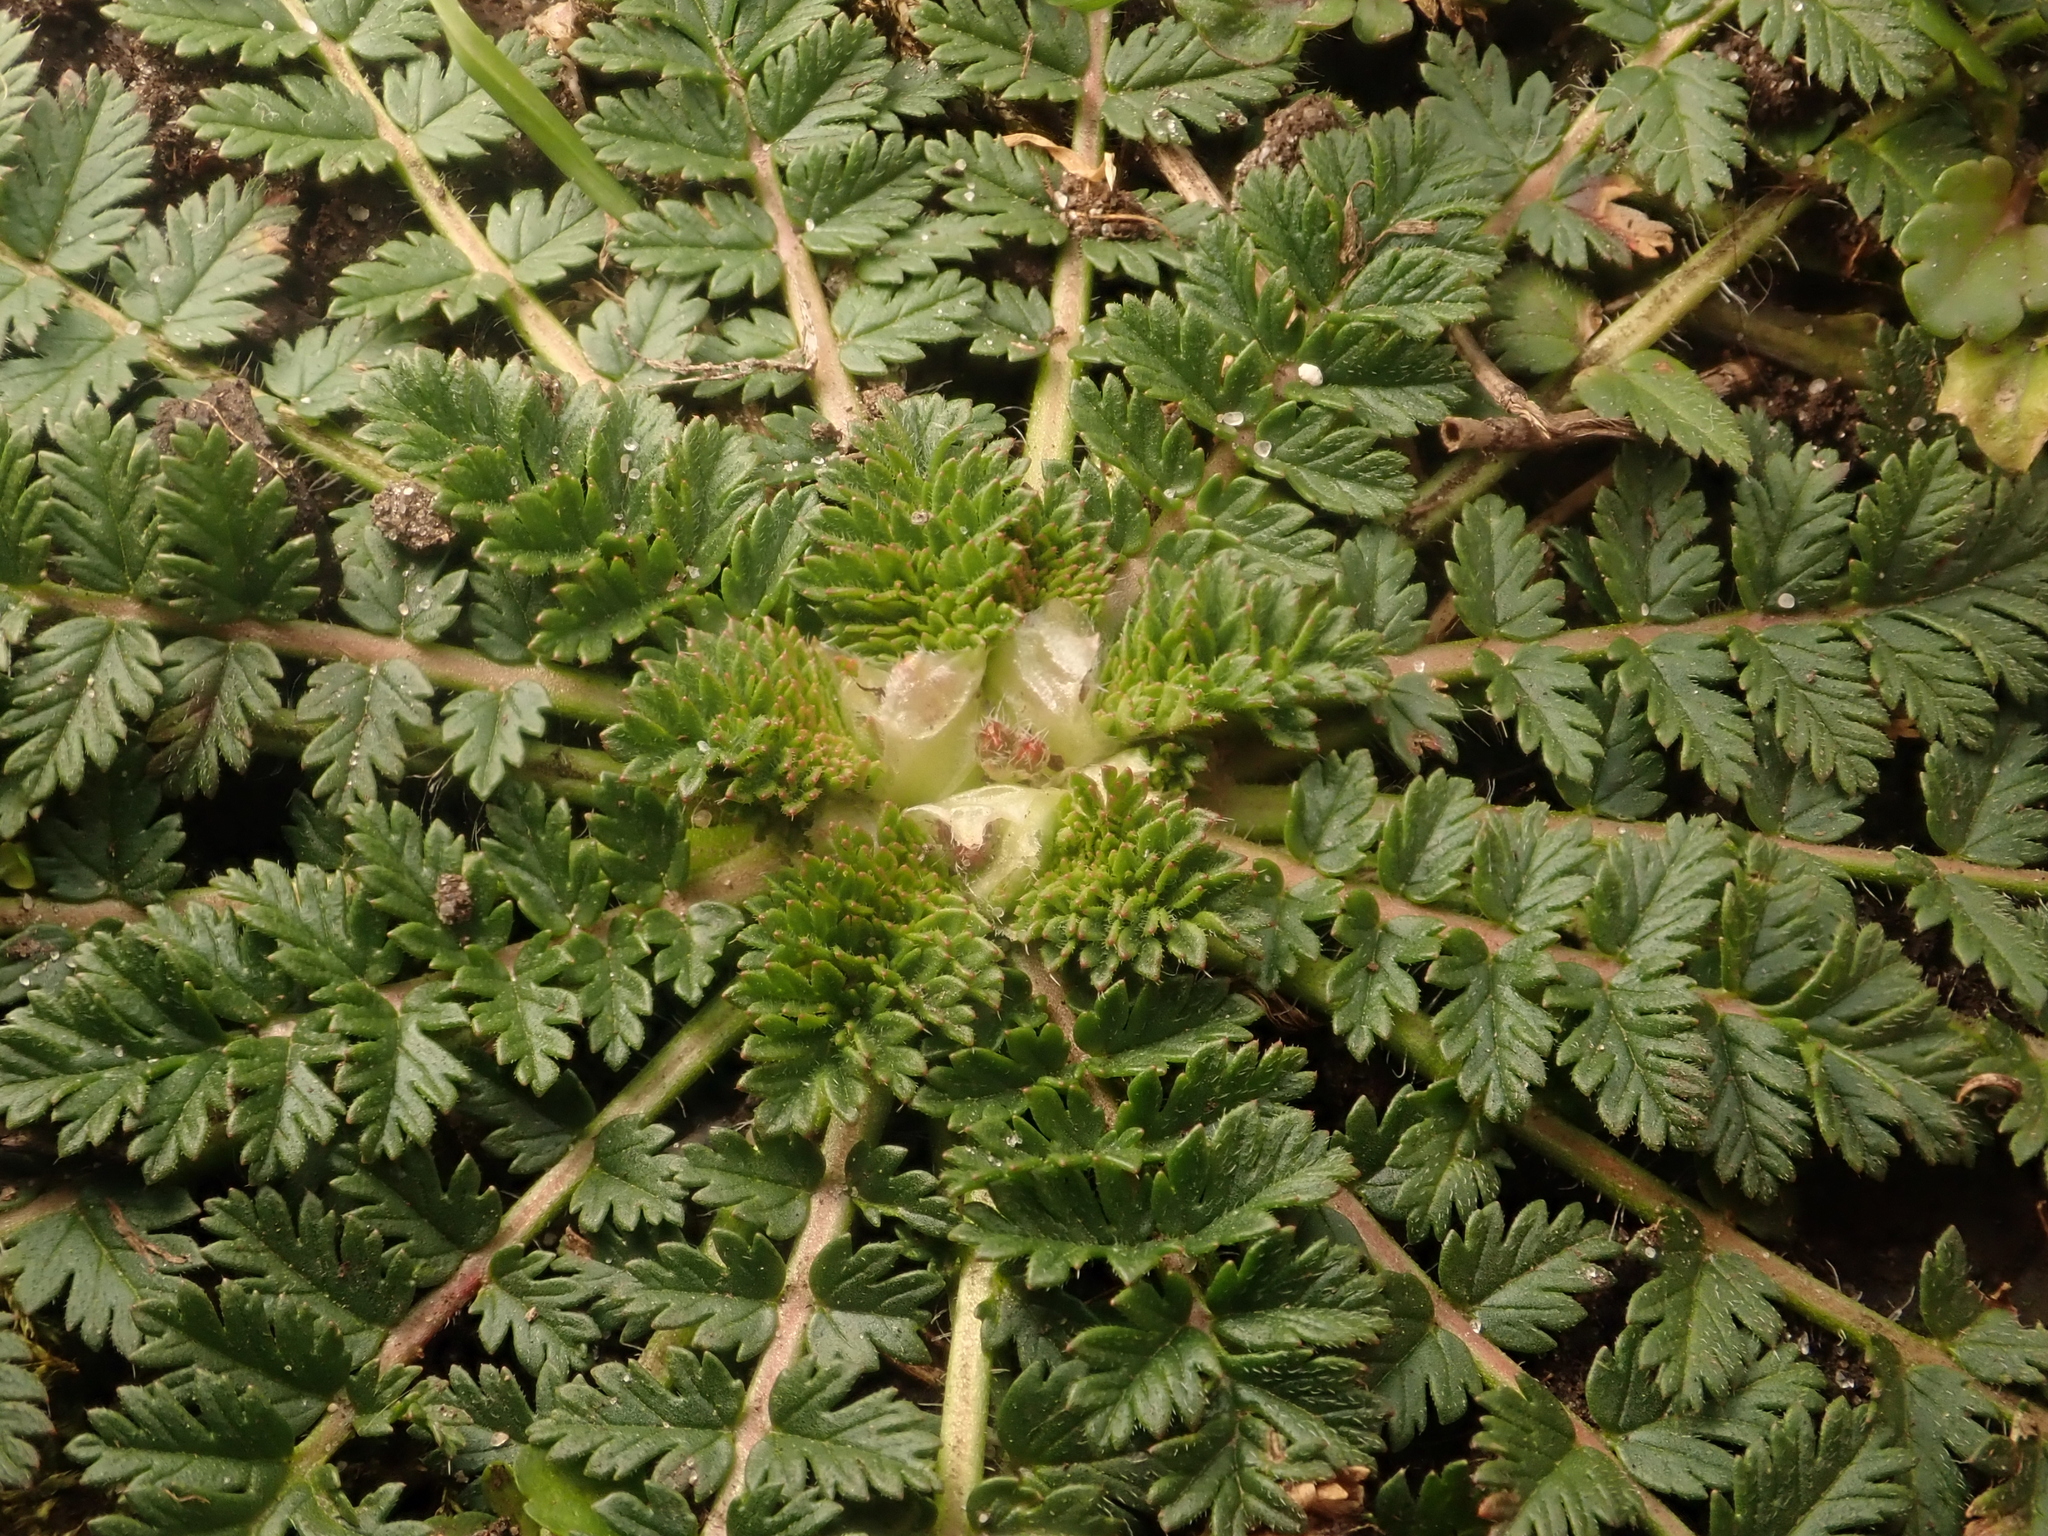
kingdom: Plantae
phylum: Tracheophyta
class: Magnoliopsida
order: Geraniales
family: Geraniaceae
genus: Erodium
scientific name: Erodium cicutarium
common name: Common stork's-bill
